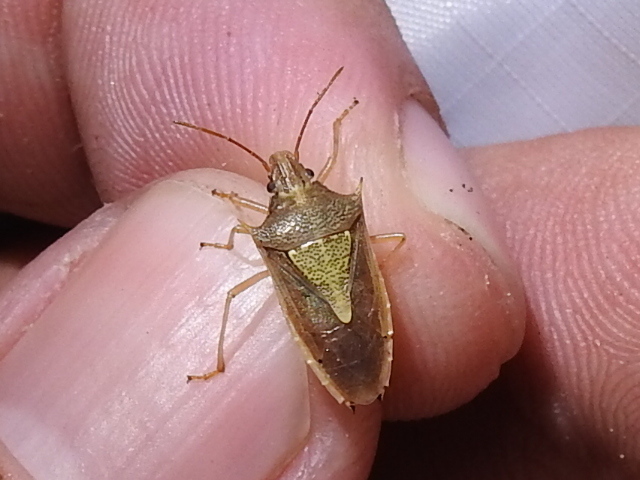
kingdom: Animalia
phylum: Arthropoda
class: Insecta
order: Hemiptera
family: Pentatomidae
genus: Oebalus
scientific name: Oebalus pugnax
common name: Rice stink bug
